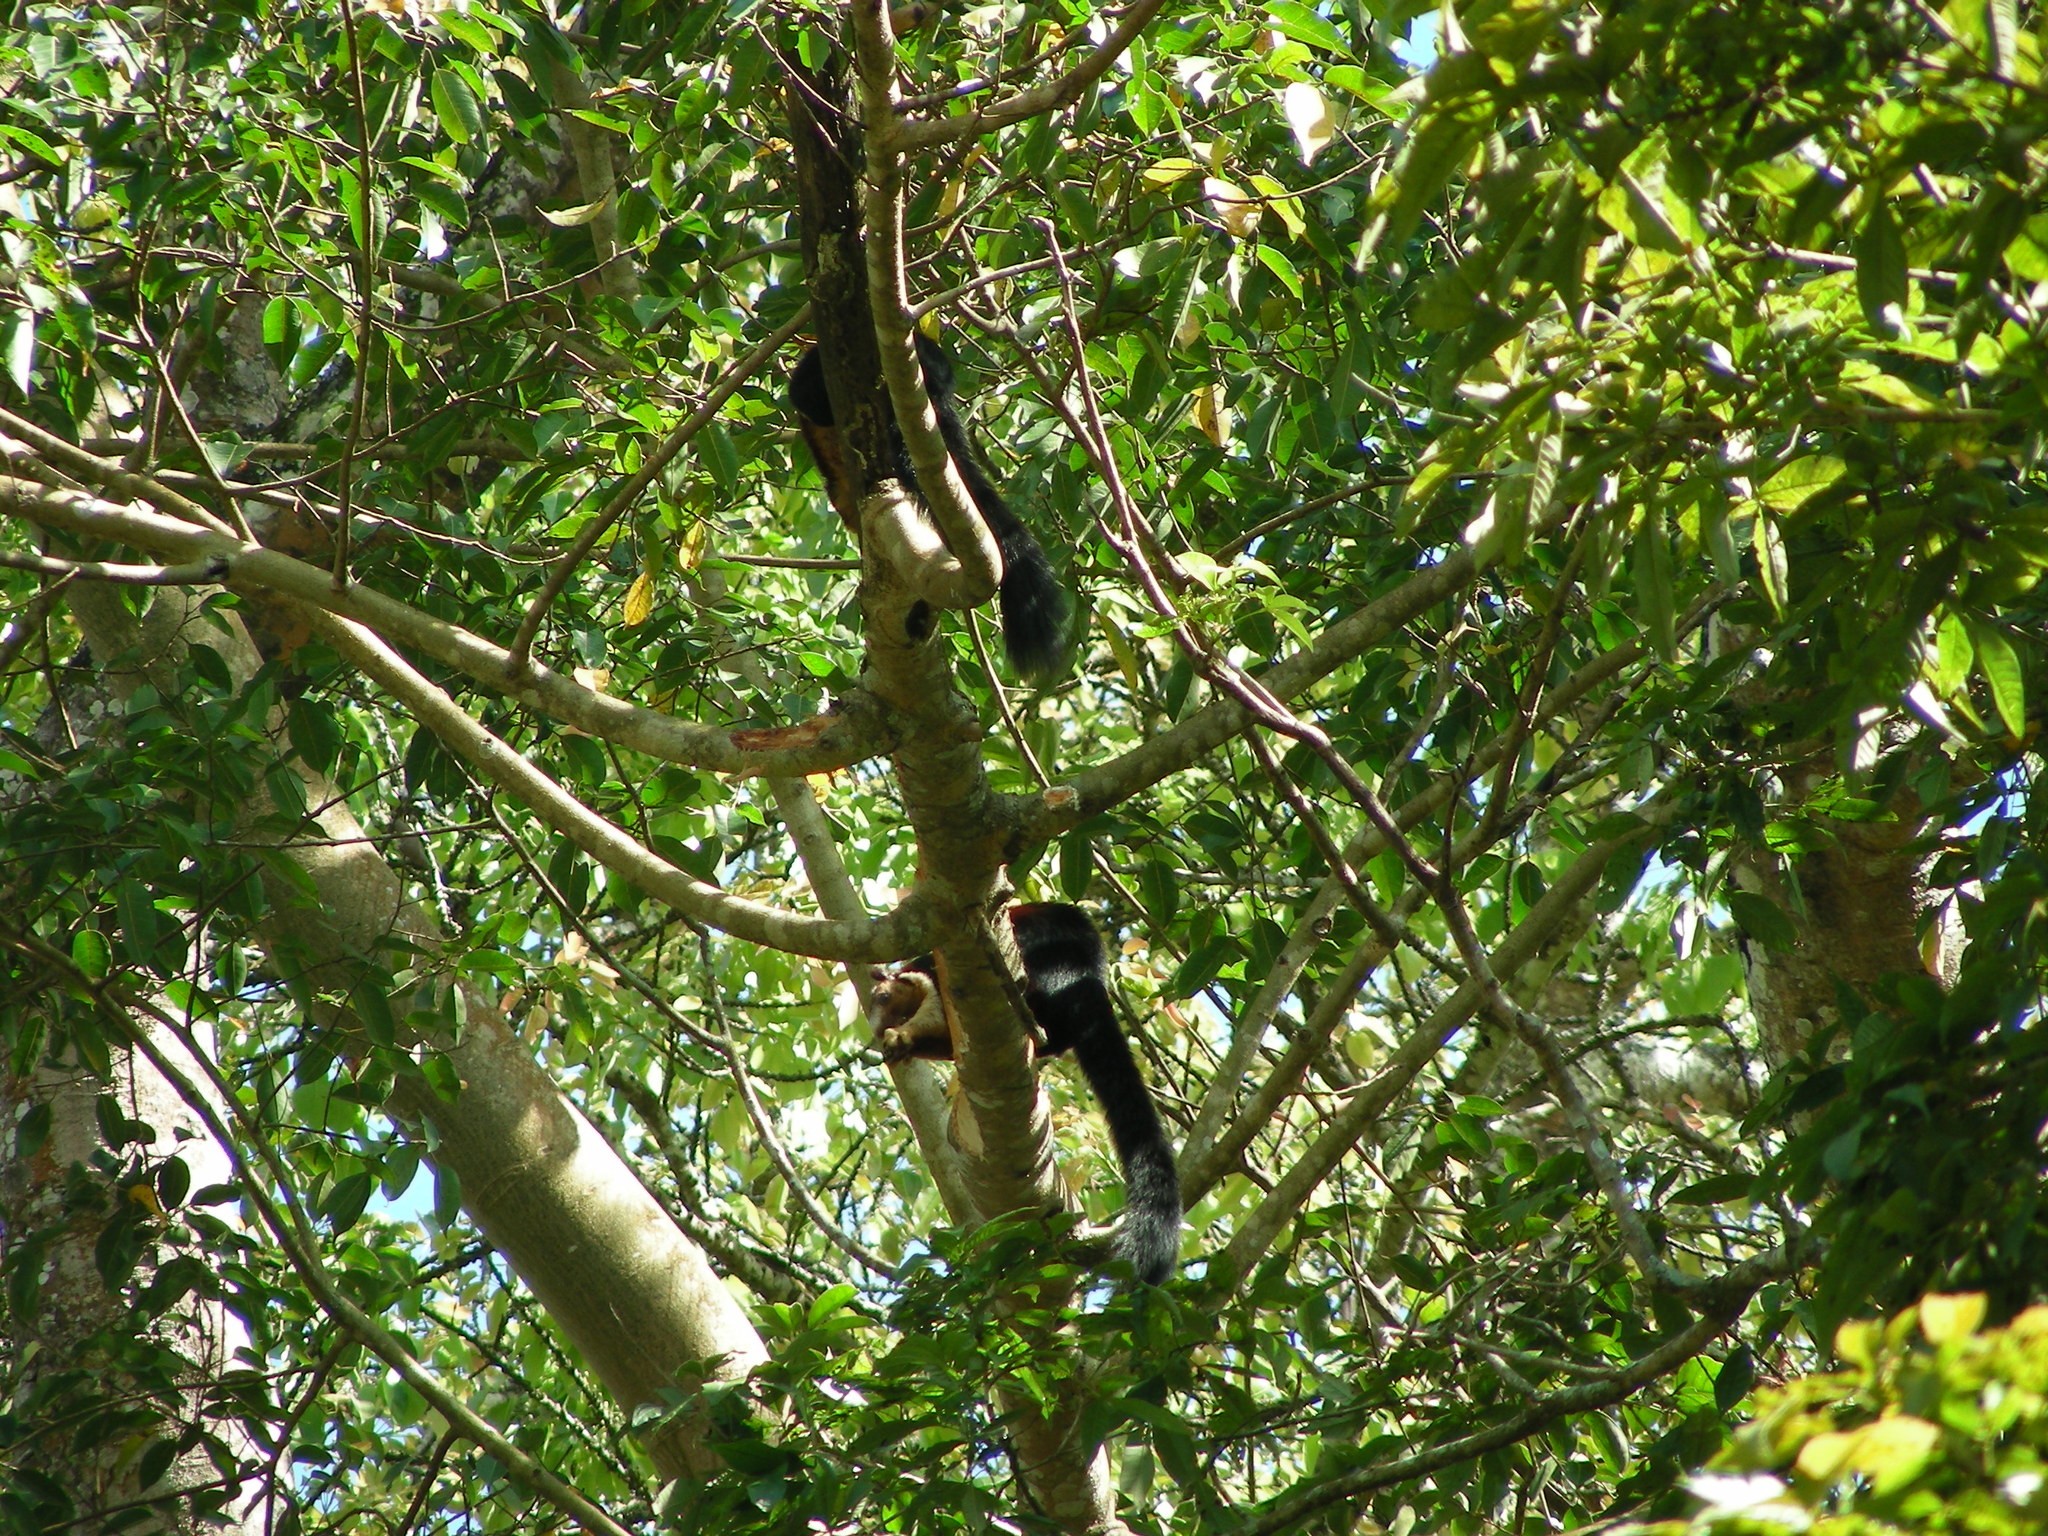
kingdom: Animalia
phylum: Chordata
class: Mammalia
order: Rodentia
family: Sciuridae
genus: Ratufa
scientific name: Ratufa indica
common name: Indian giant squirrel
